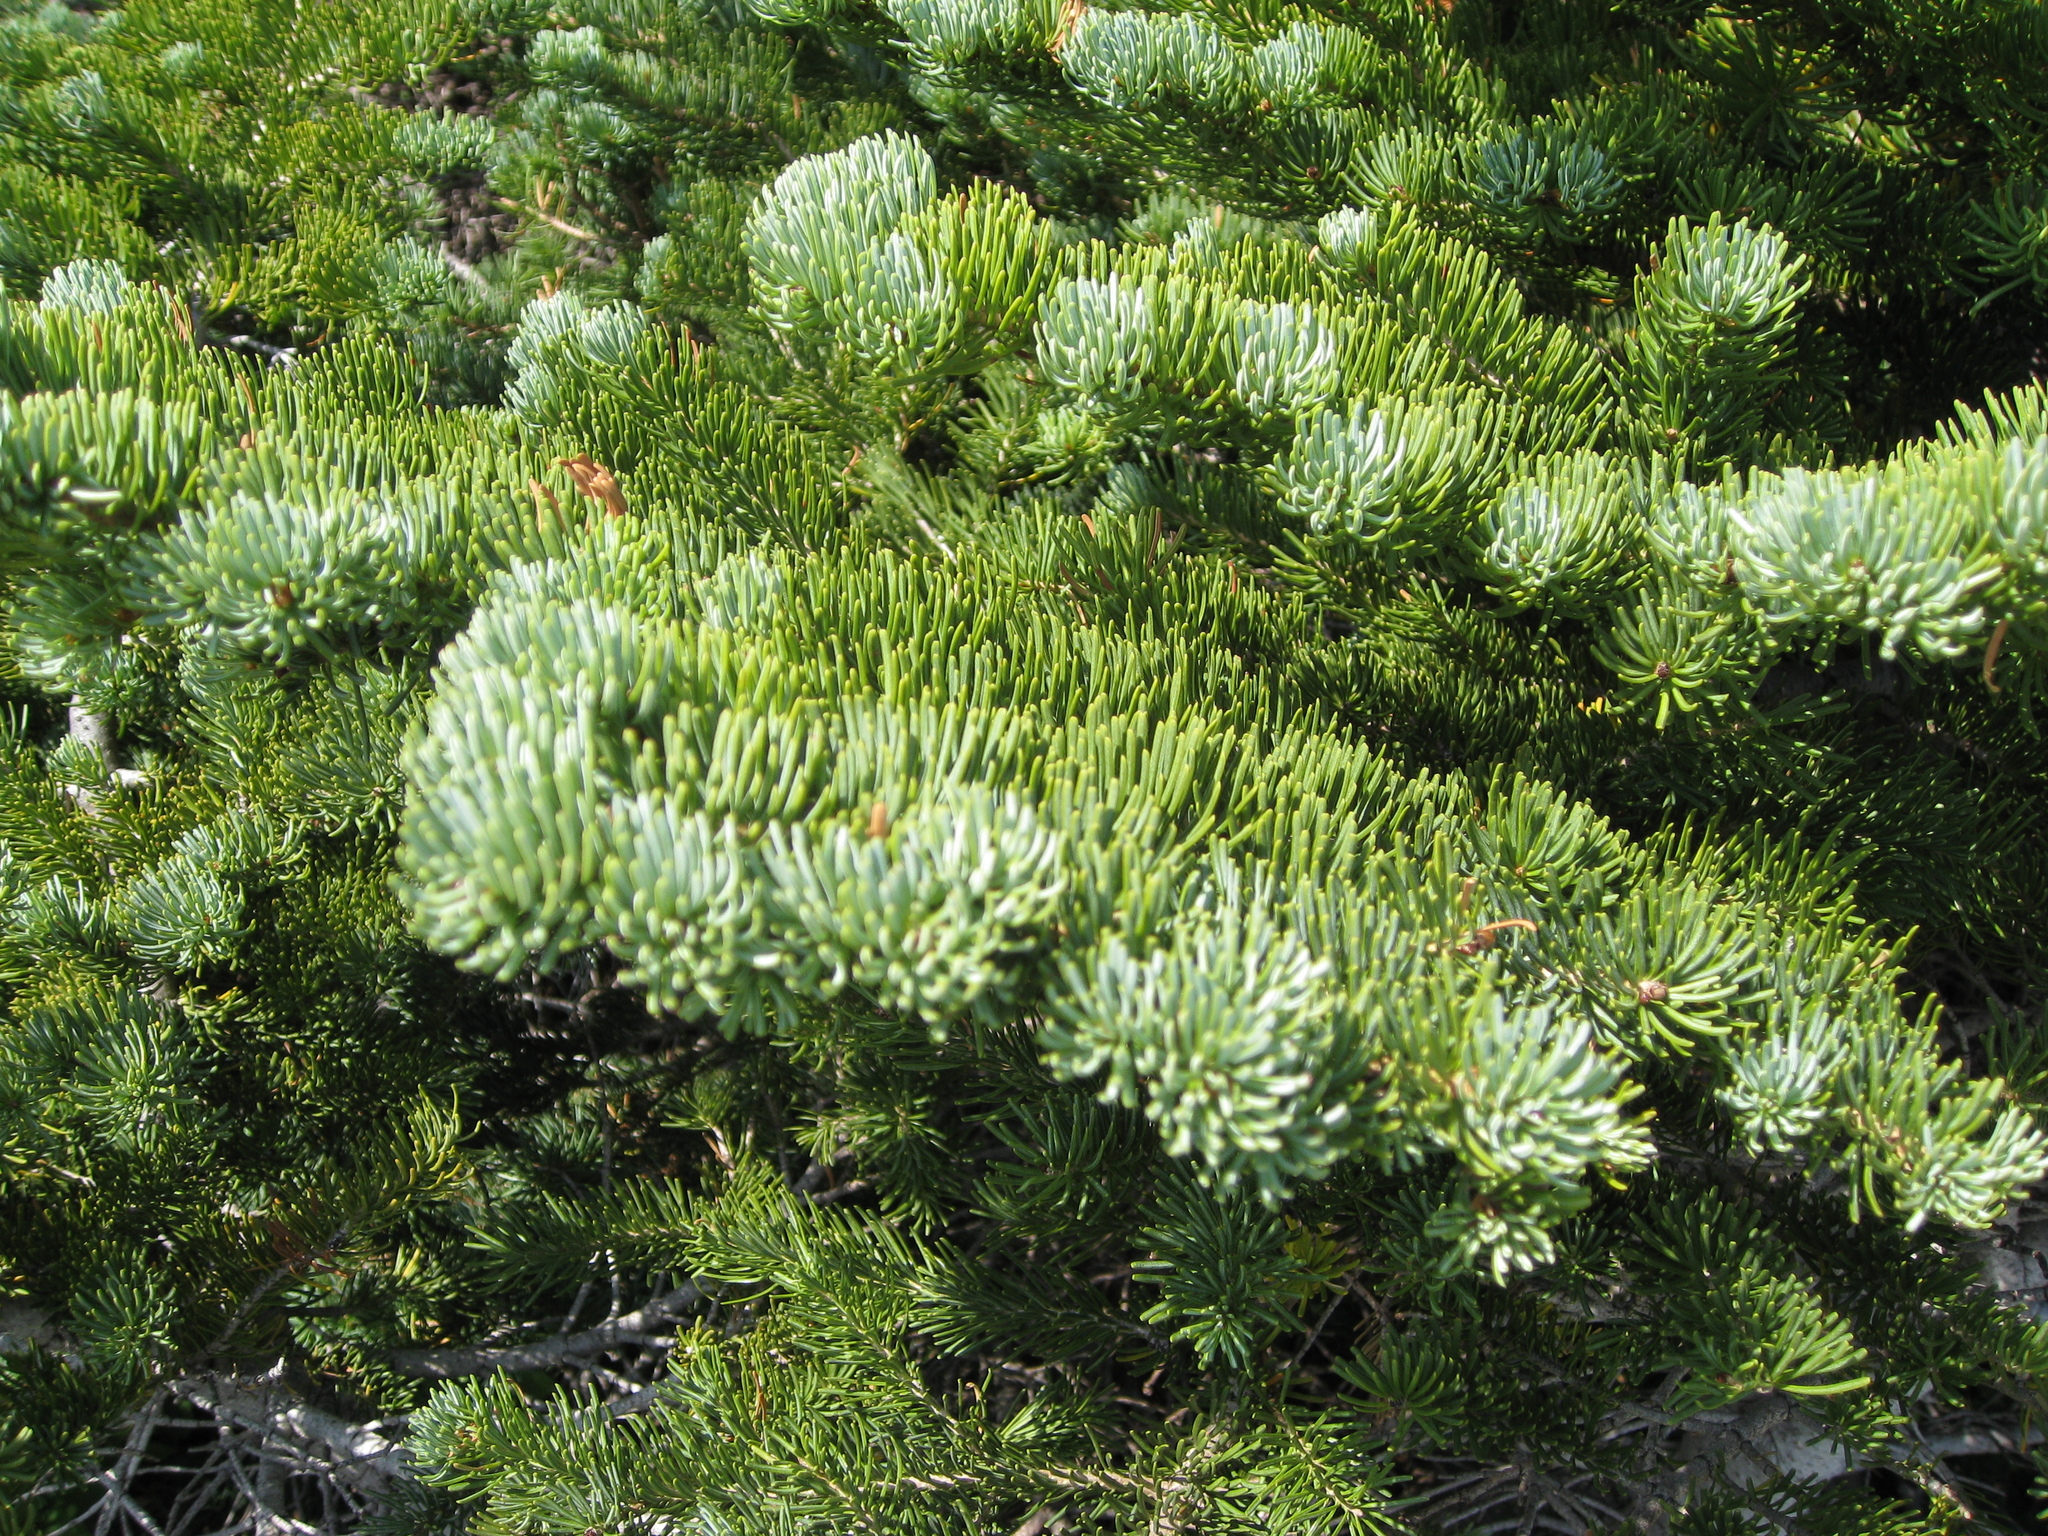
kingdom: Plantae
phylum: Tracheophyta
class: Pinopsida
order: Pinales
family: Pinaceae
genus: Abies
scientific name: Abies lasiocarpa
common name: Subalpine fir
